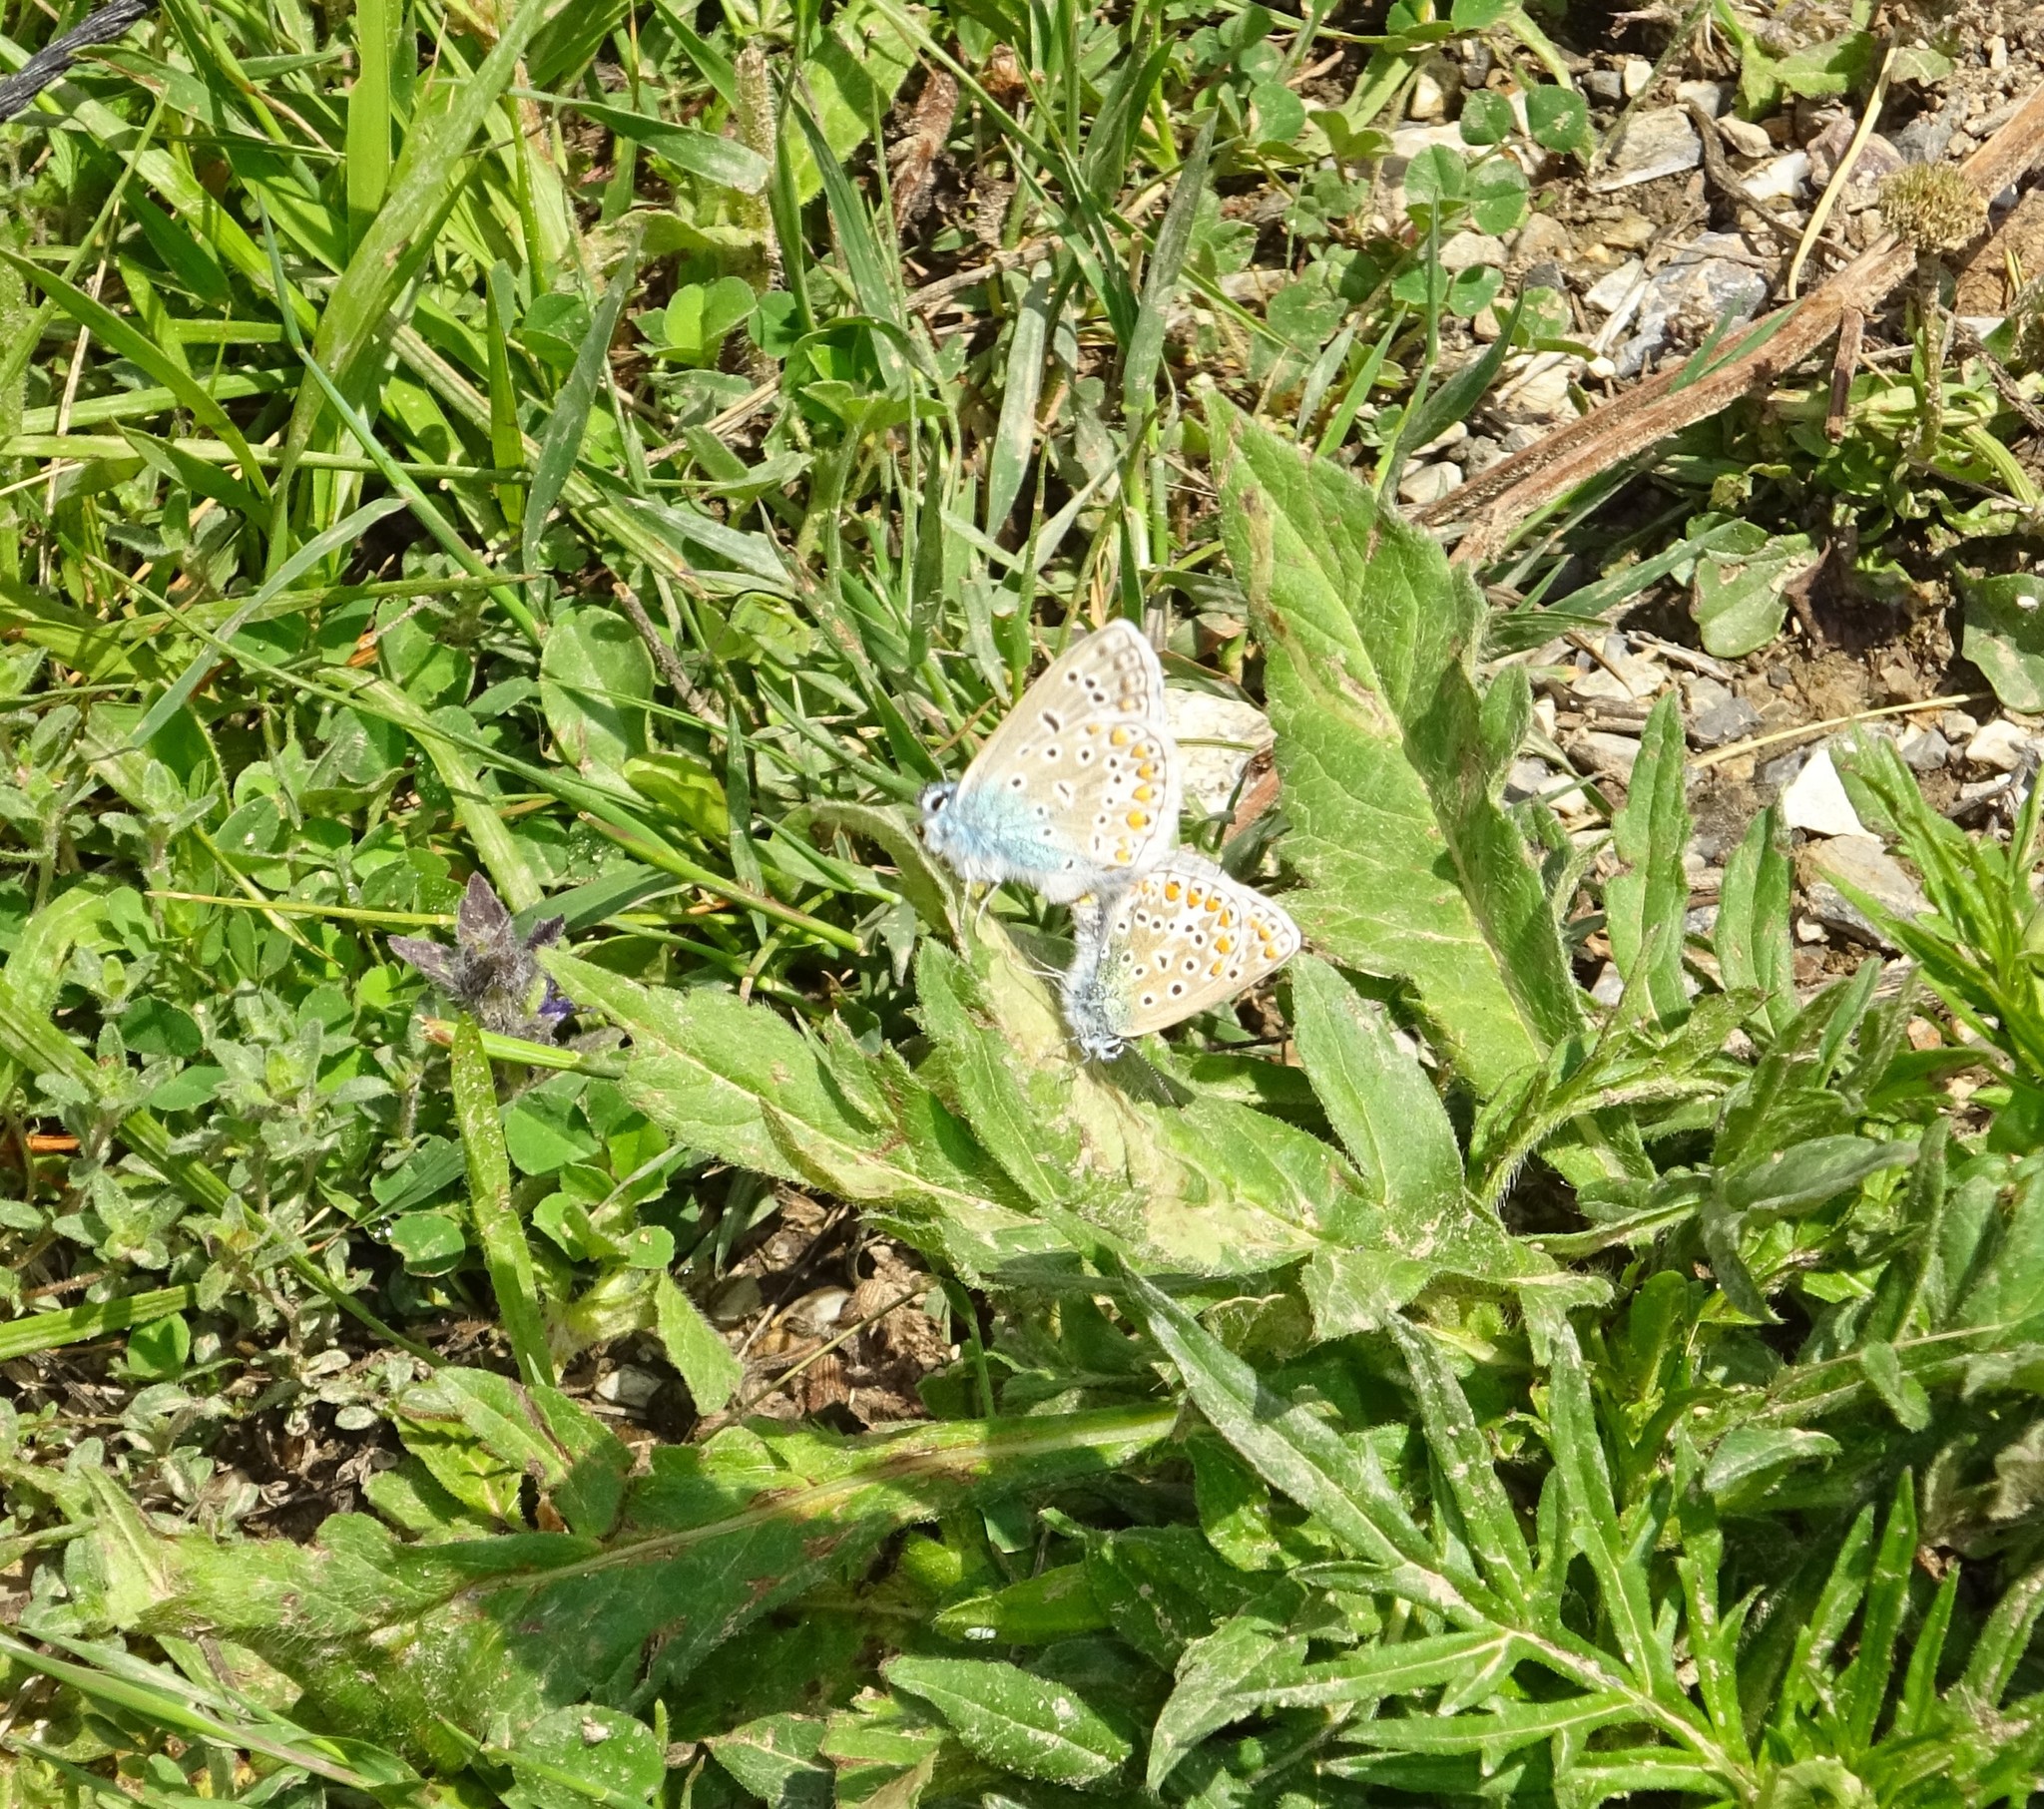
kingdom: Animalia
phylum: Arthropoda
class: Insecta
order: Lepidoptera
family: Lycaenidae
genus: Polyommatus
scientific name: Polyommatus icarus
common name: Common blue
